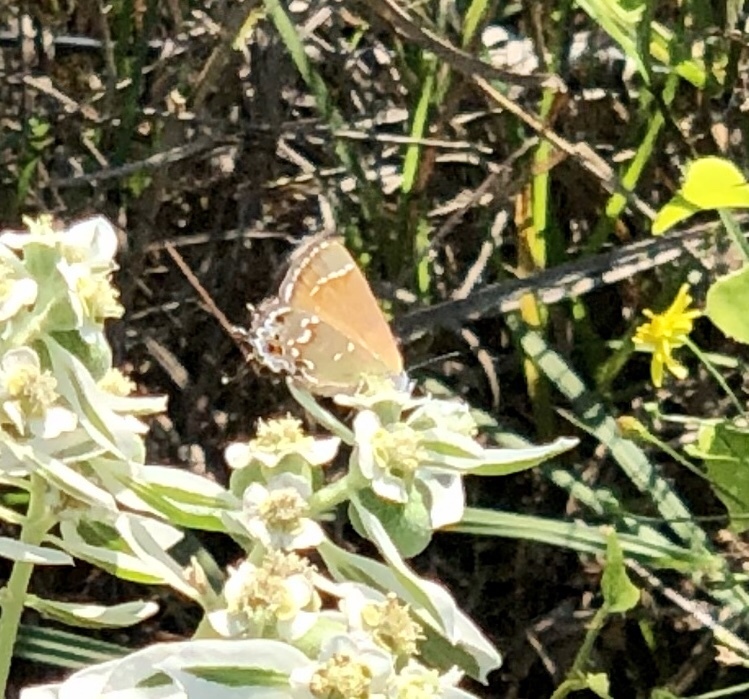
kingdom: Animalia
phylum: Arthropoda
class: Insecta
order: Lepidoptera
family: Lycaenidae
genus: Mitoura
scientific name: Mitoura gryneus
